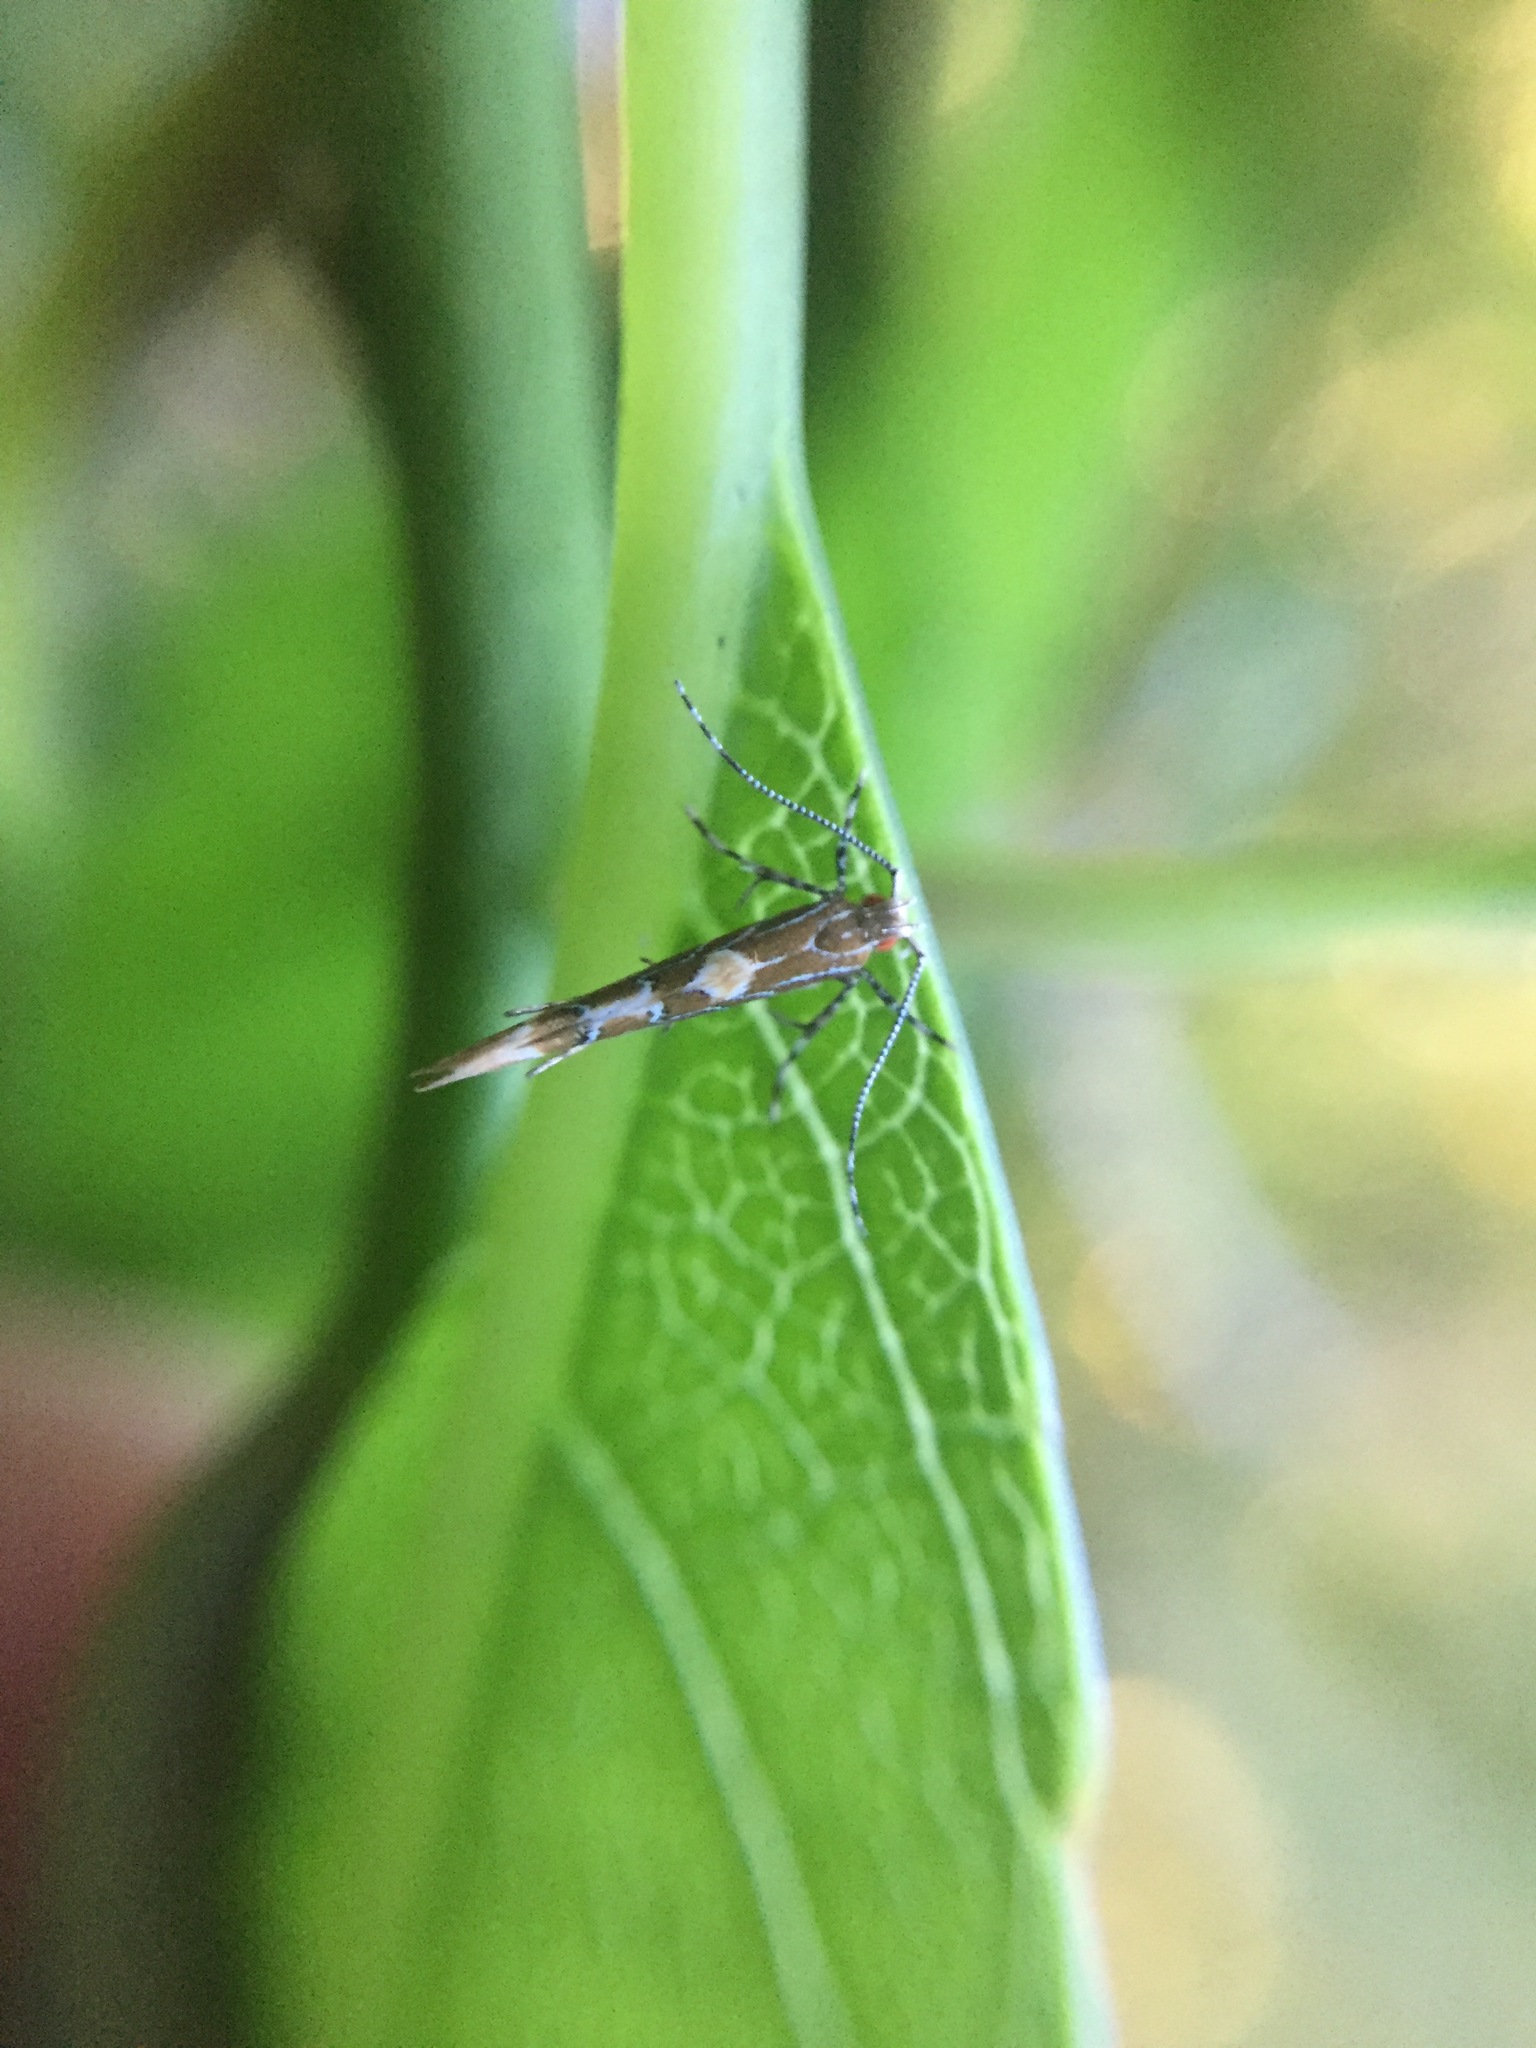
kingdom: Animalia
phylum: Arthropoda
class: Insecta
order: Lepidoptera
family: Cosmopterigidae
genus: Pyroderces
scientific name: Pyroderces apparitella
